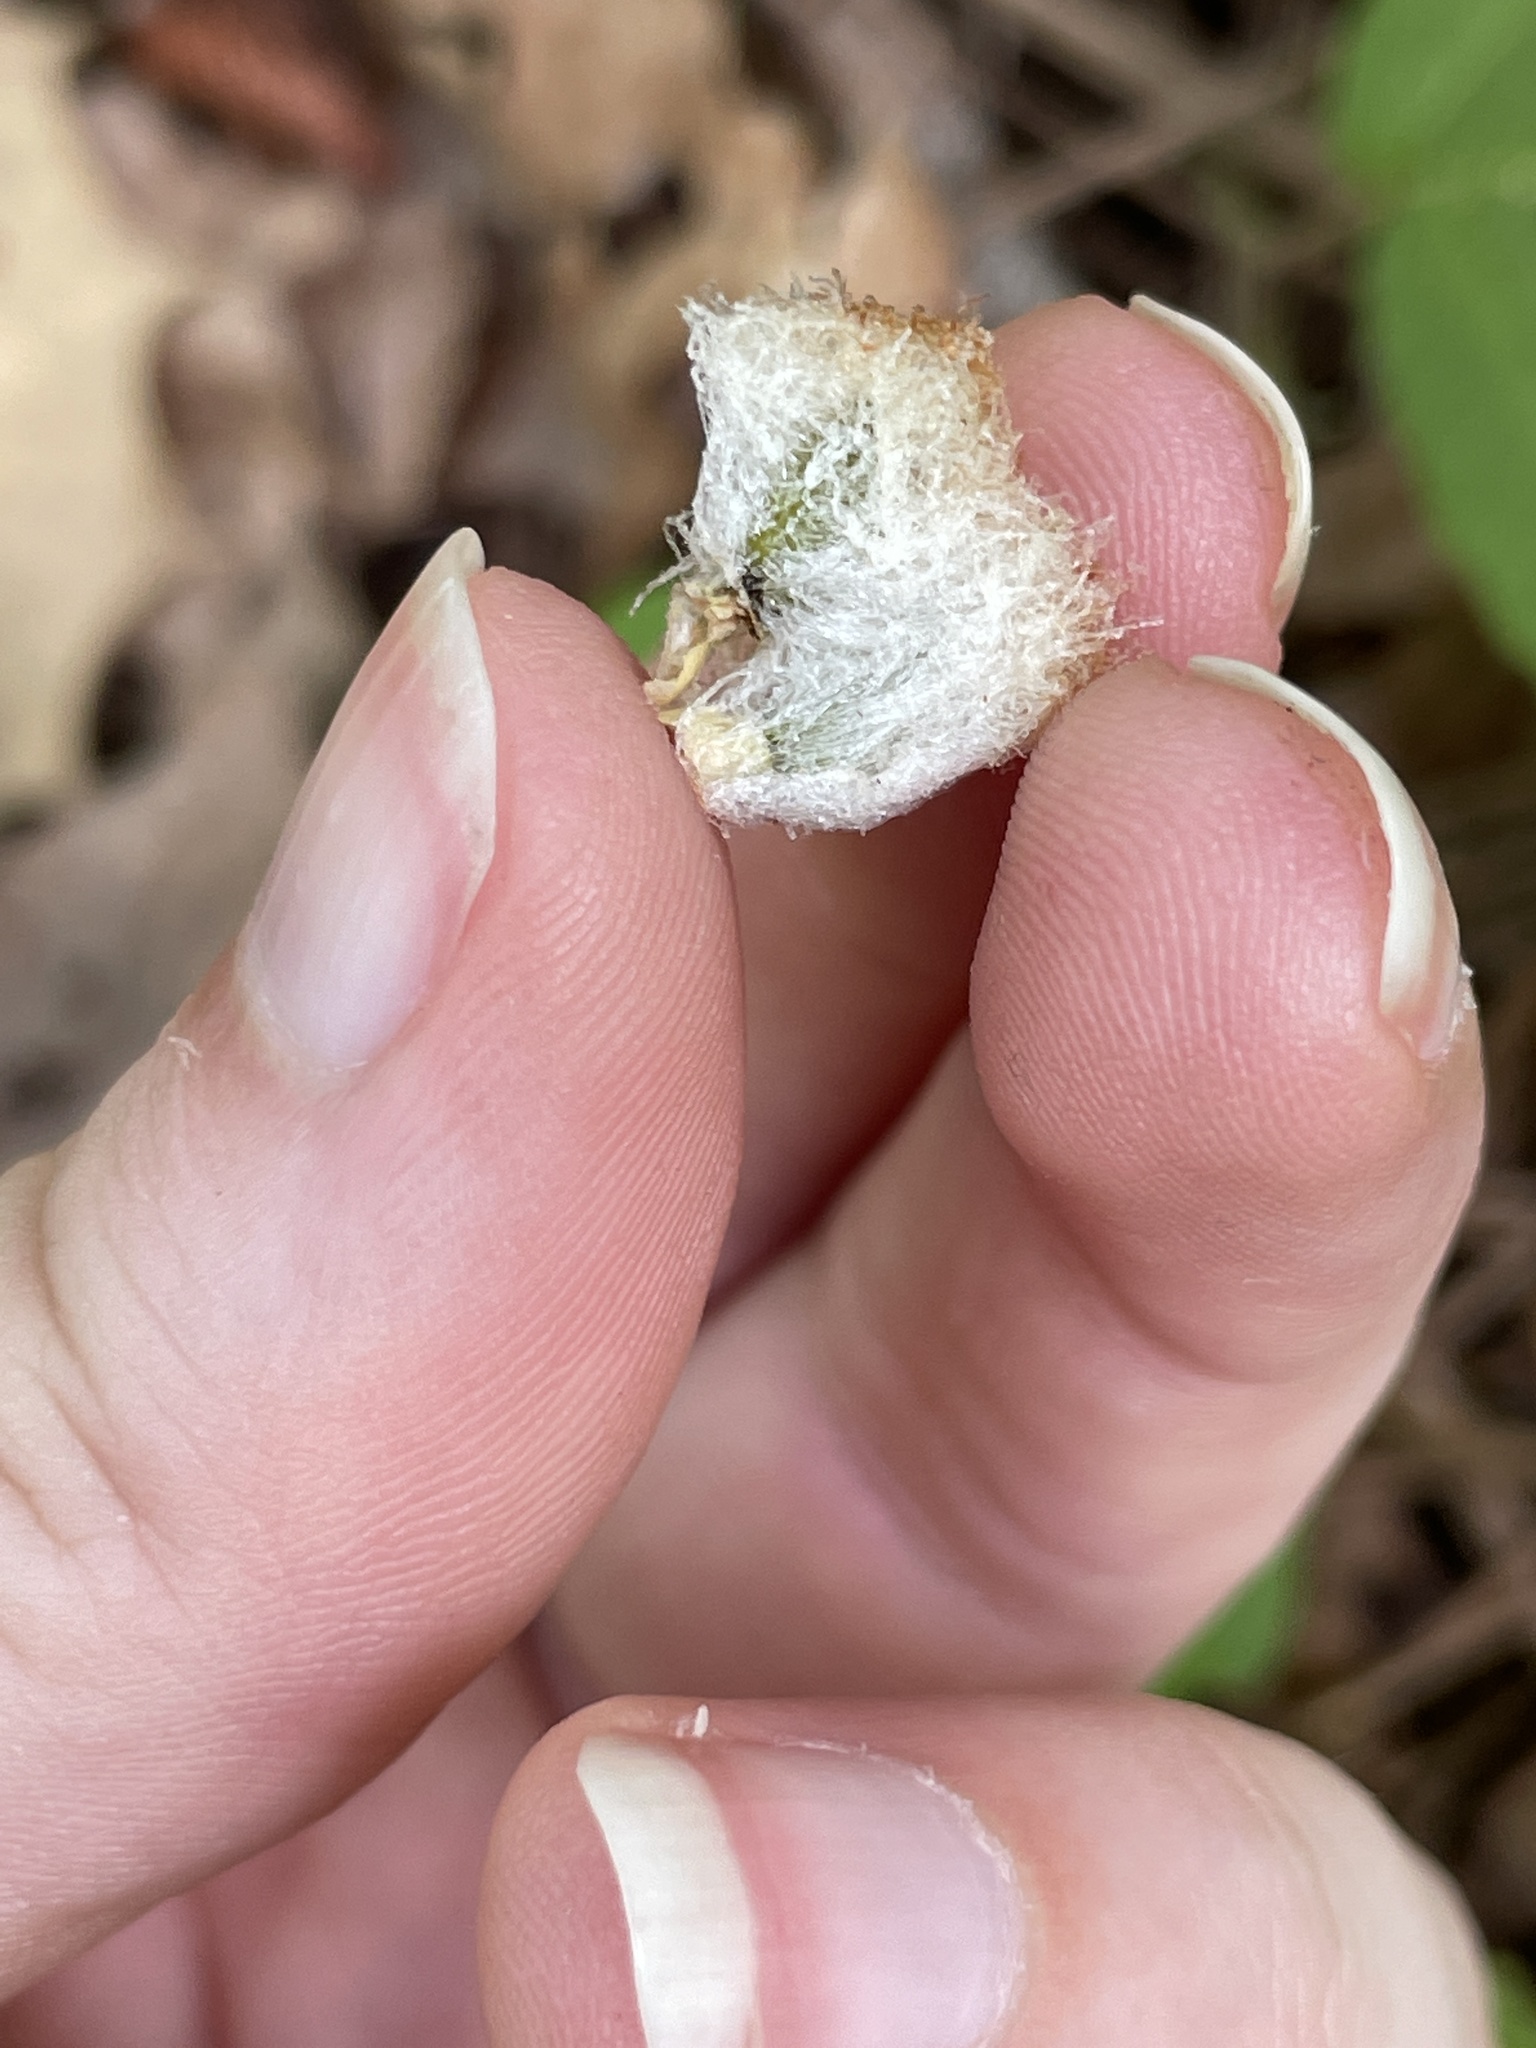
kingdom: Animalia
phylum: Arthropoda
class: Insecta
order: Hymenoptera
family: Cynipidae
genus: Callirhytis
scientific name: Callirhytis
